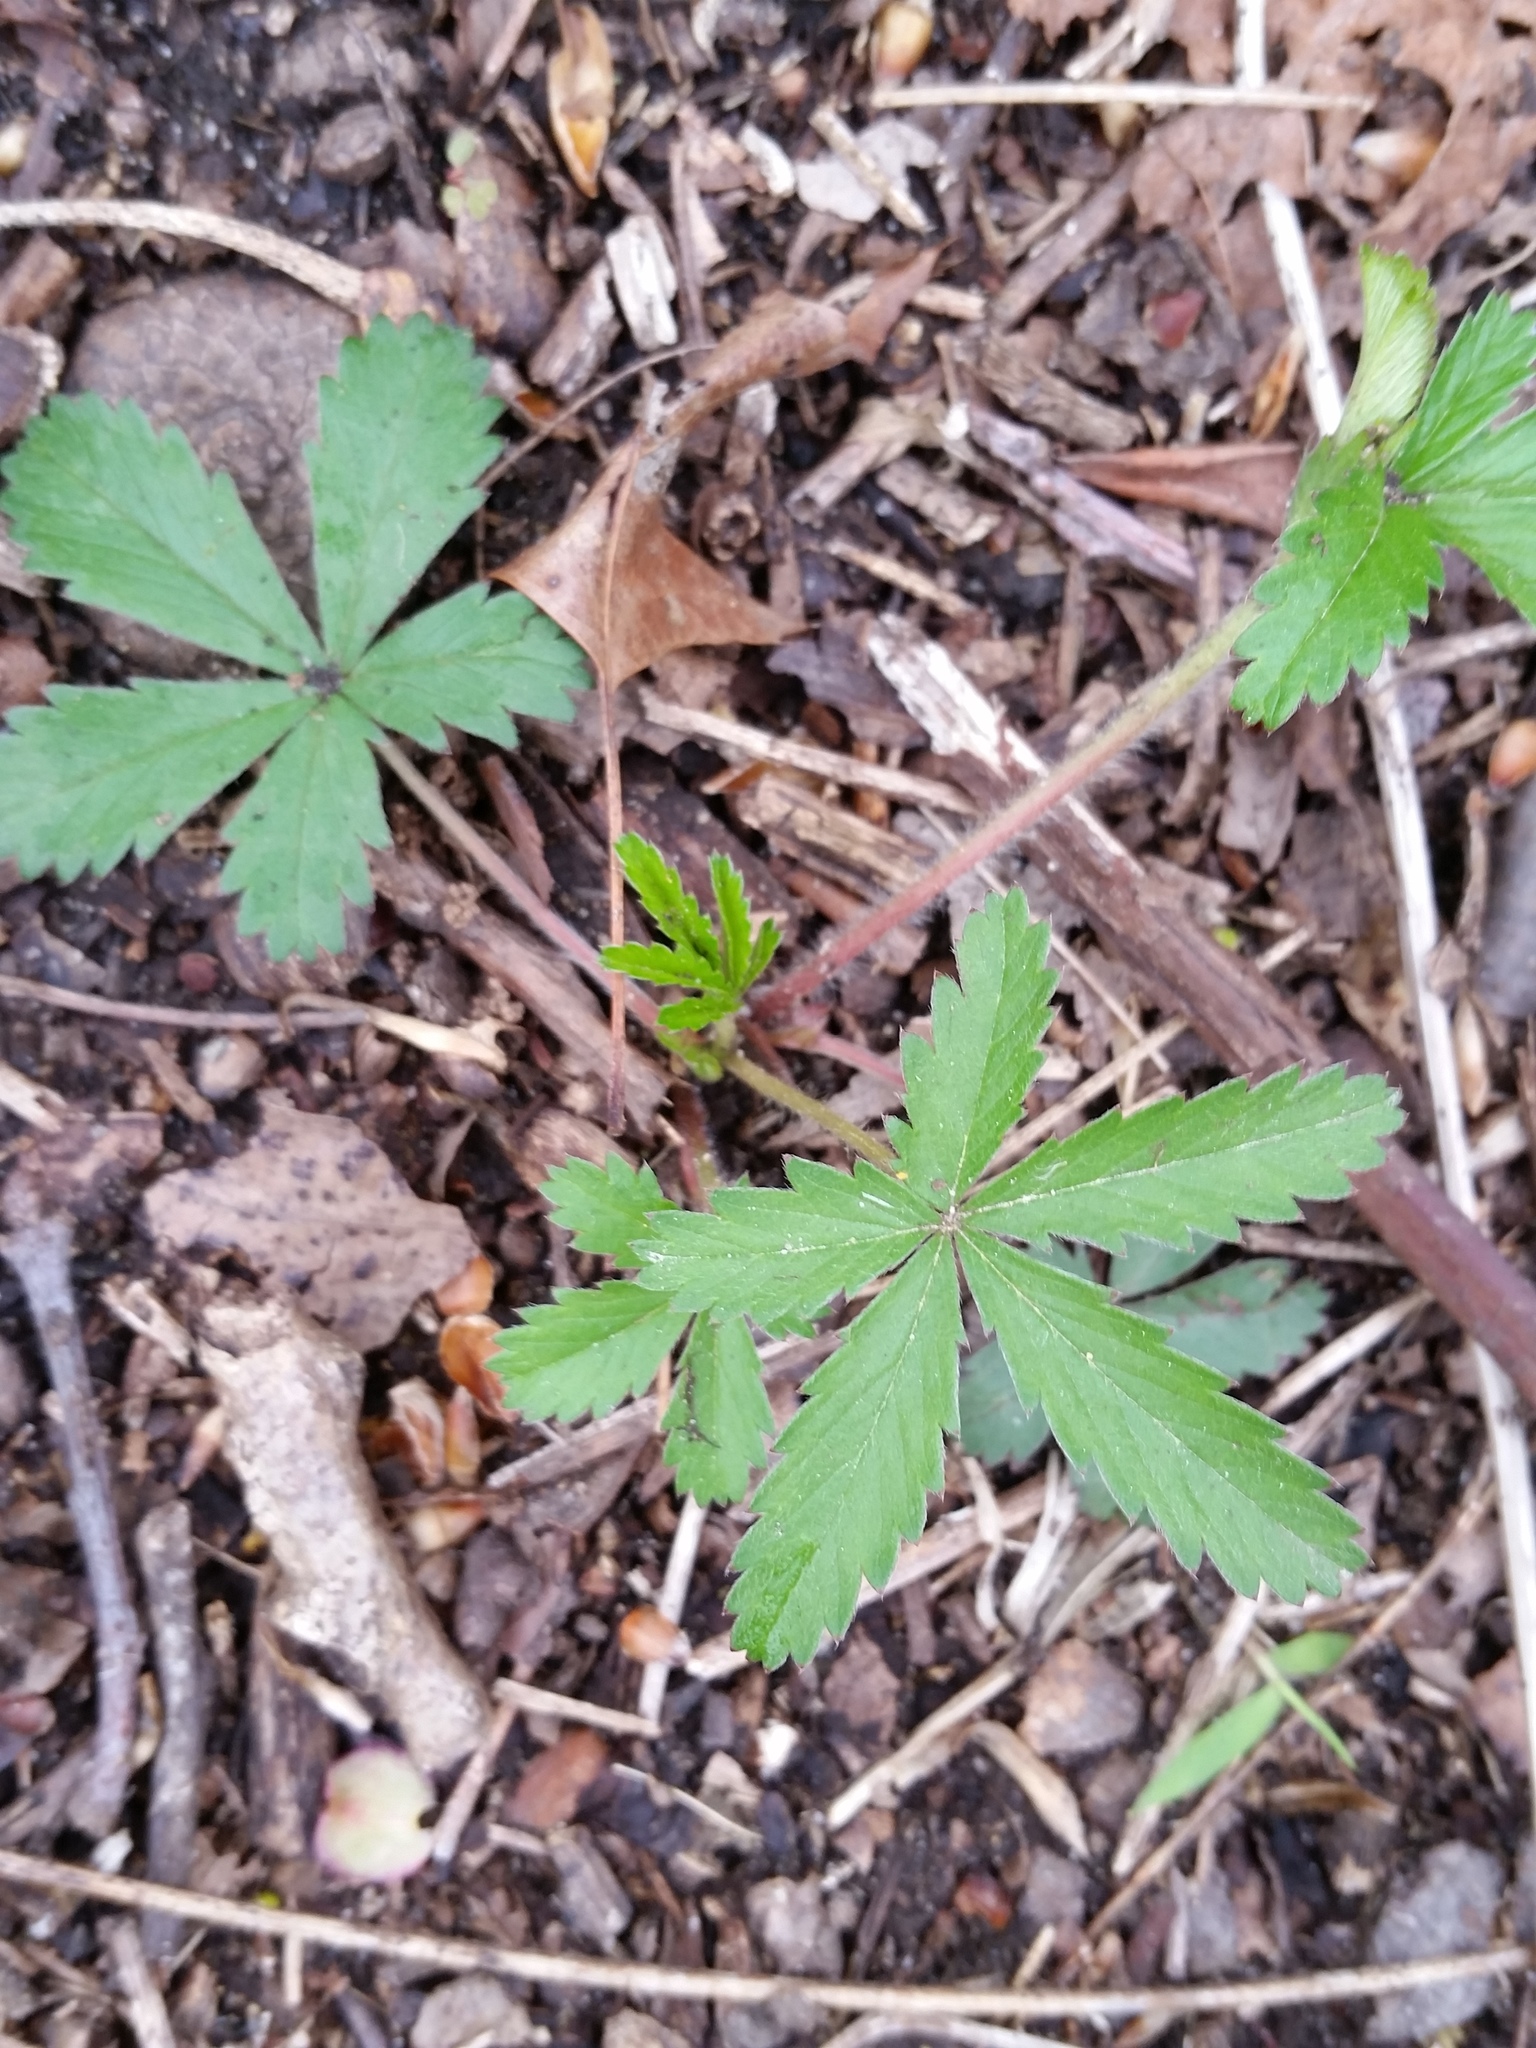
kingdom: Plantae
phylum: Tracheophyta
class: Magnoliopsida
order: Rosales
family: Rosaceae
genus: Potentilla
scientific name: Potentilla simplex
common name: Old field cinquefoil
